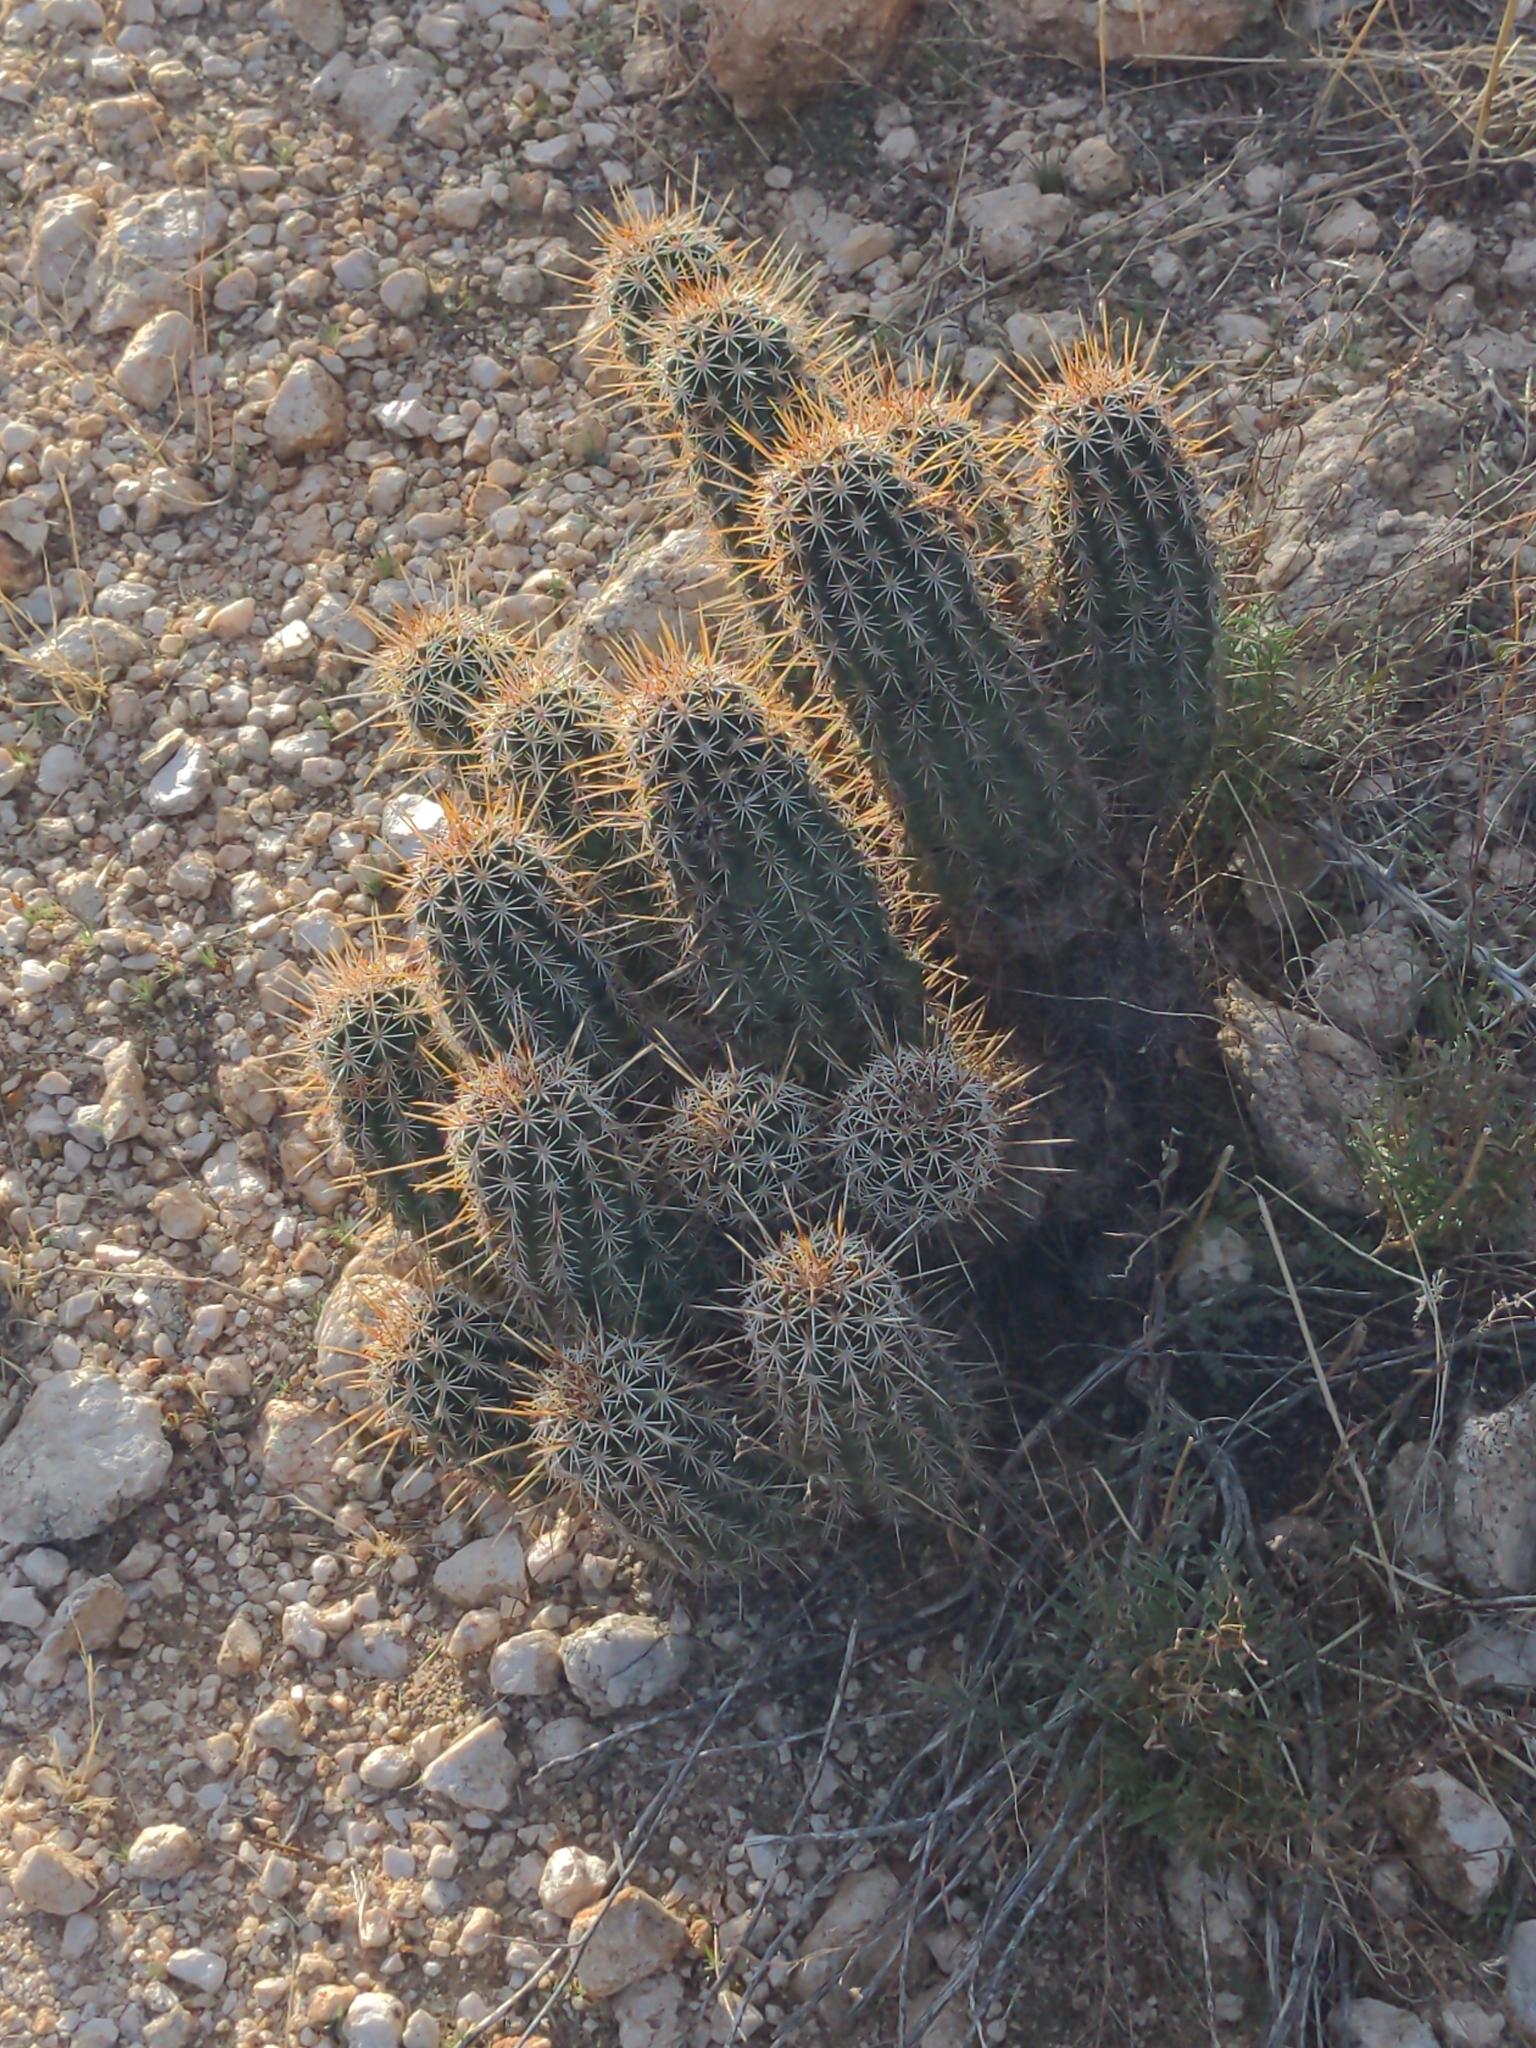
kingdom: Plantae
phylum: Tracheophyta
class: Magnoliopsida
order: Caryophyllales
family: Cactaceae
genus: Echinocereus
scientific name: Echinocereus fasciculatus
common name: Bundle hedgehog
